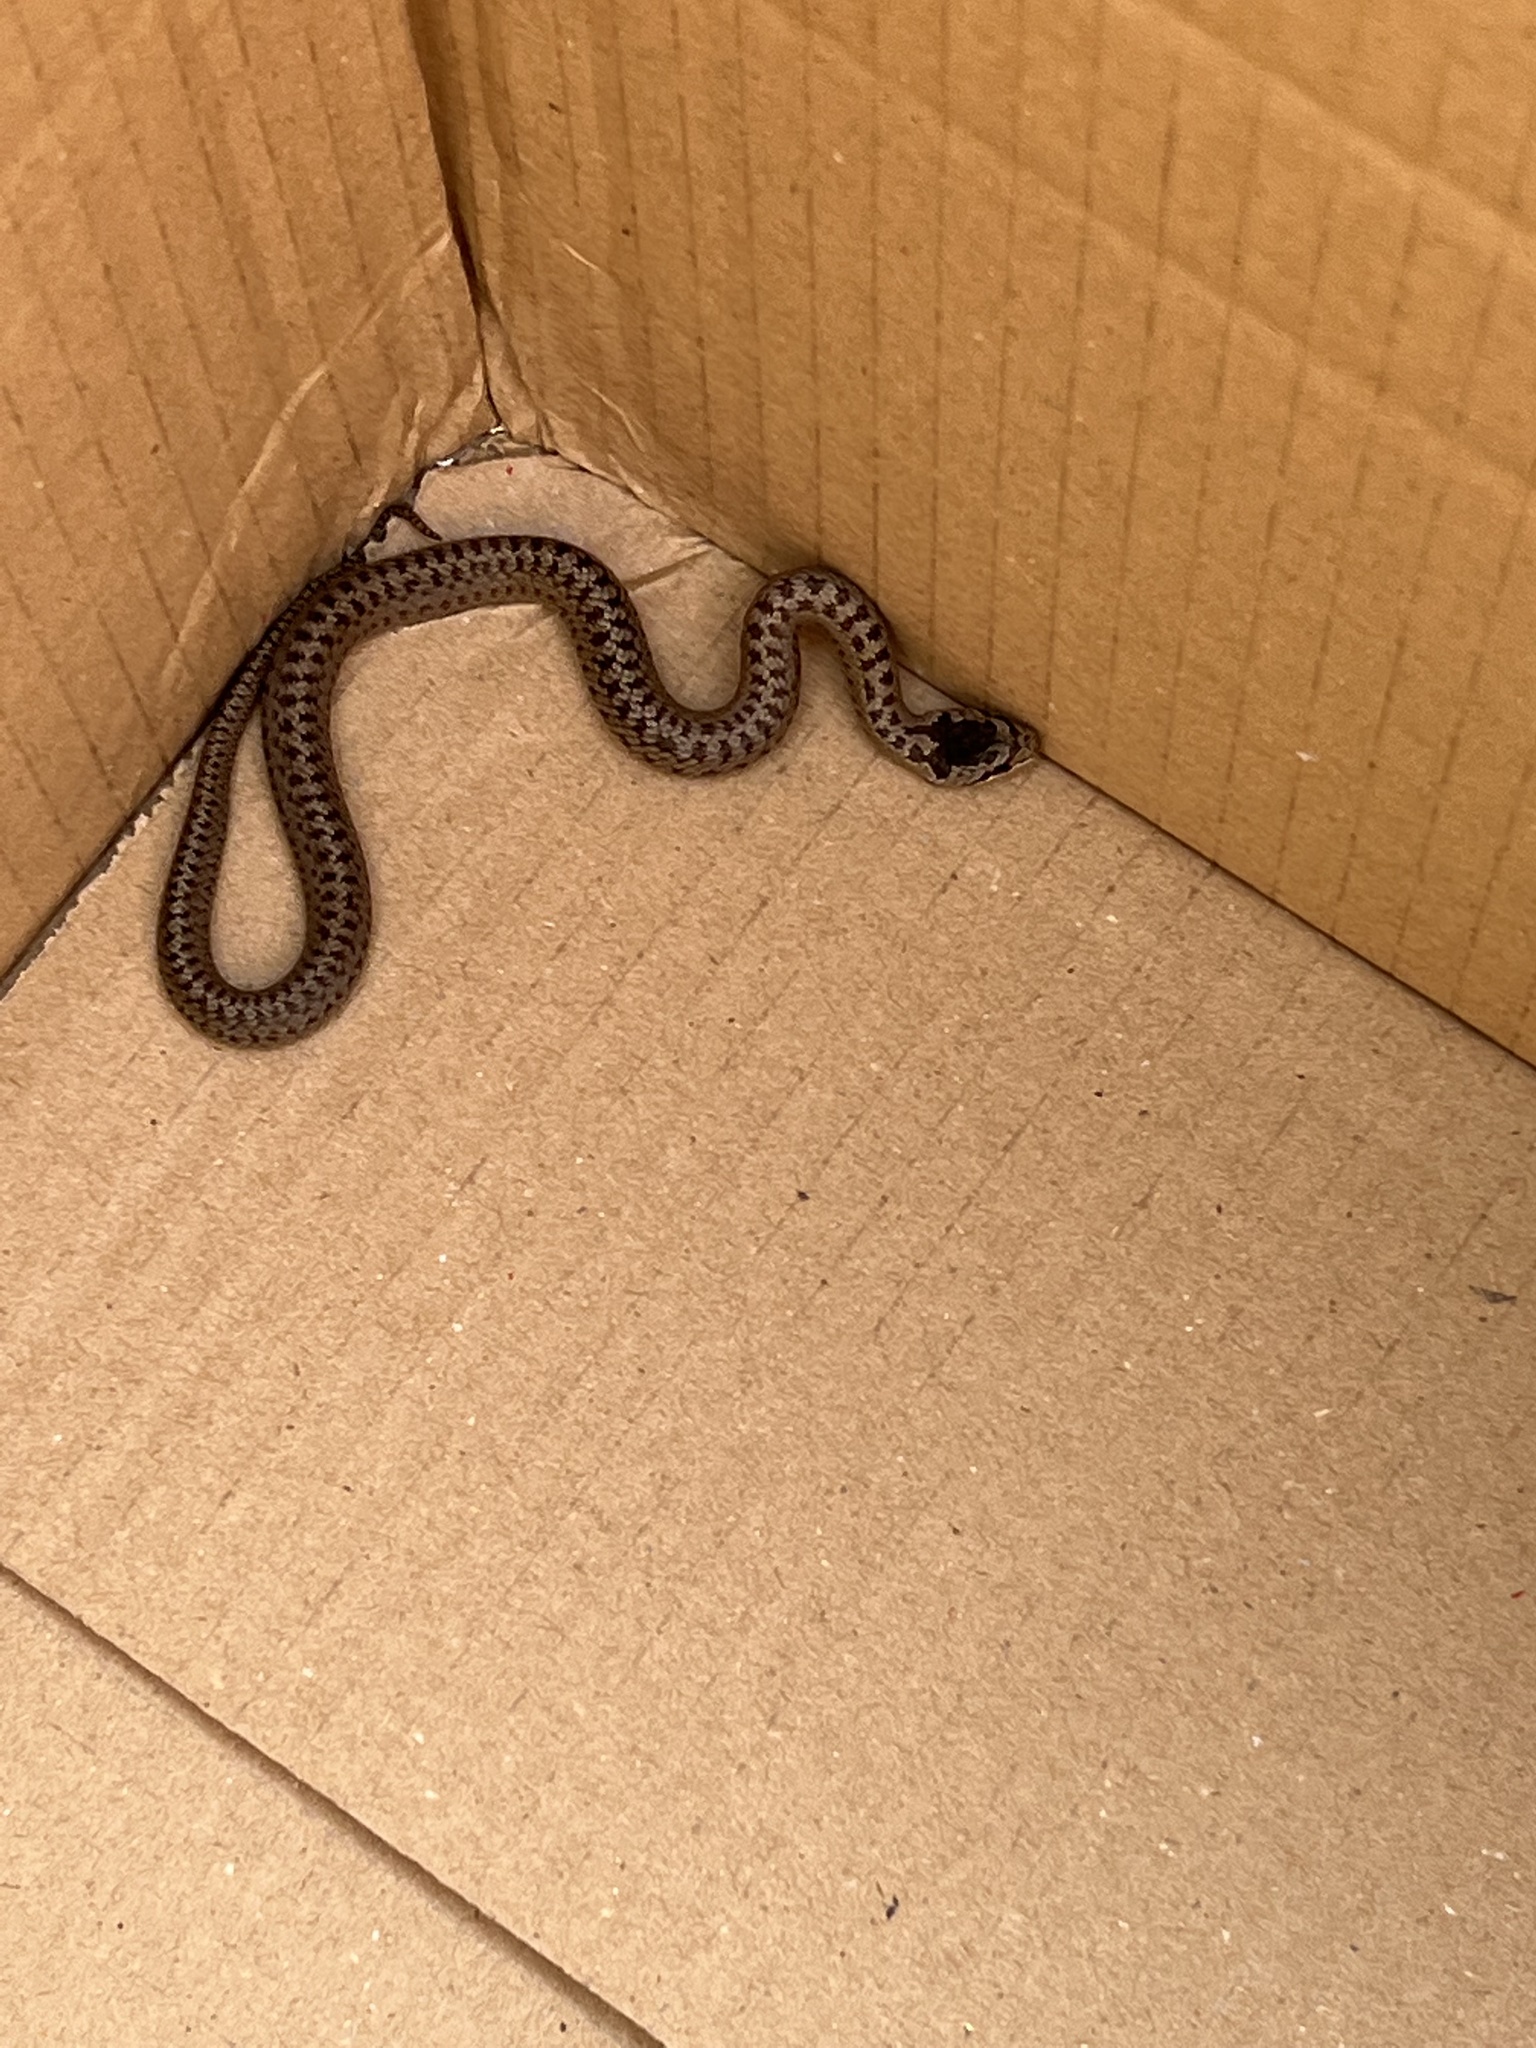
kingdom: Animalia
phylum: Chordata
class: Squamata
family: Colubridae
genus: Coronella
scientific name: Coronella austriaca
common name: Smooth snake
